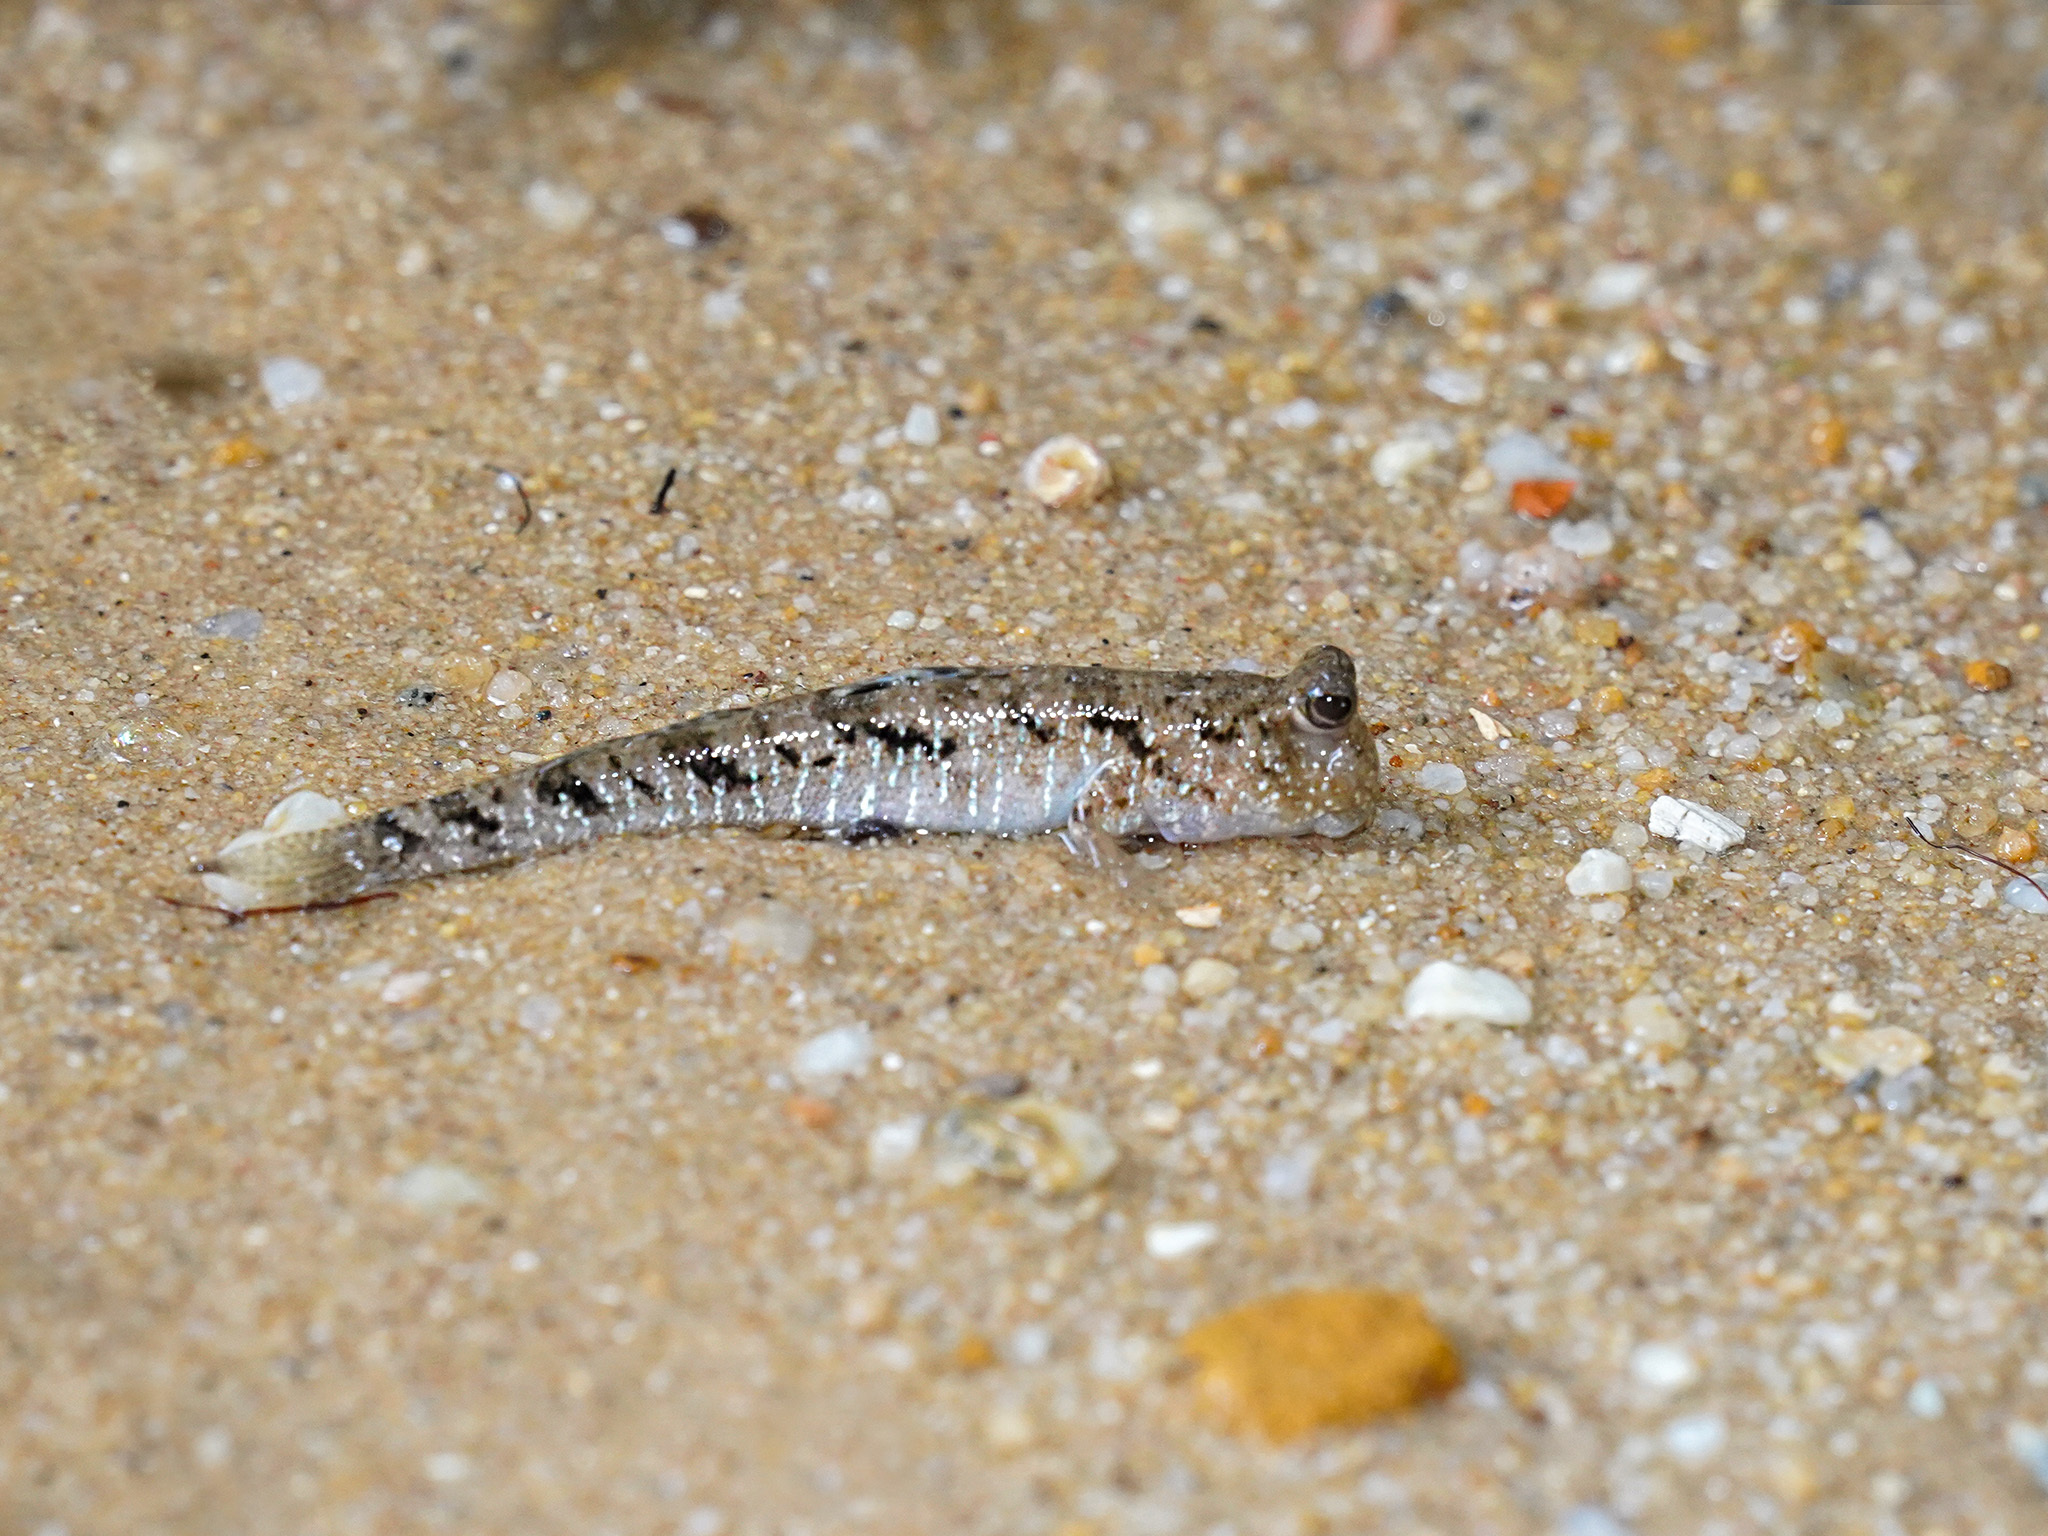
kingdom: Animalia
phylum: Chordata
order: Perciformes
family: Gobiidae
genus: Periophthalmus
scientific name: Periophthalmus argentilineatus
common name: Barred mudskipper
